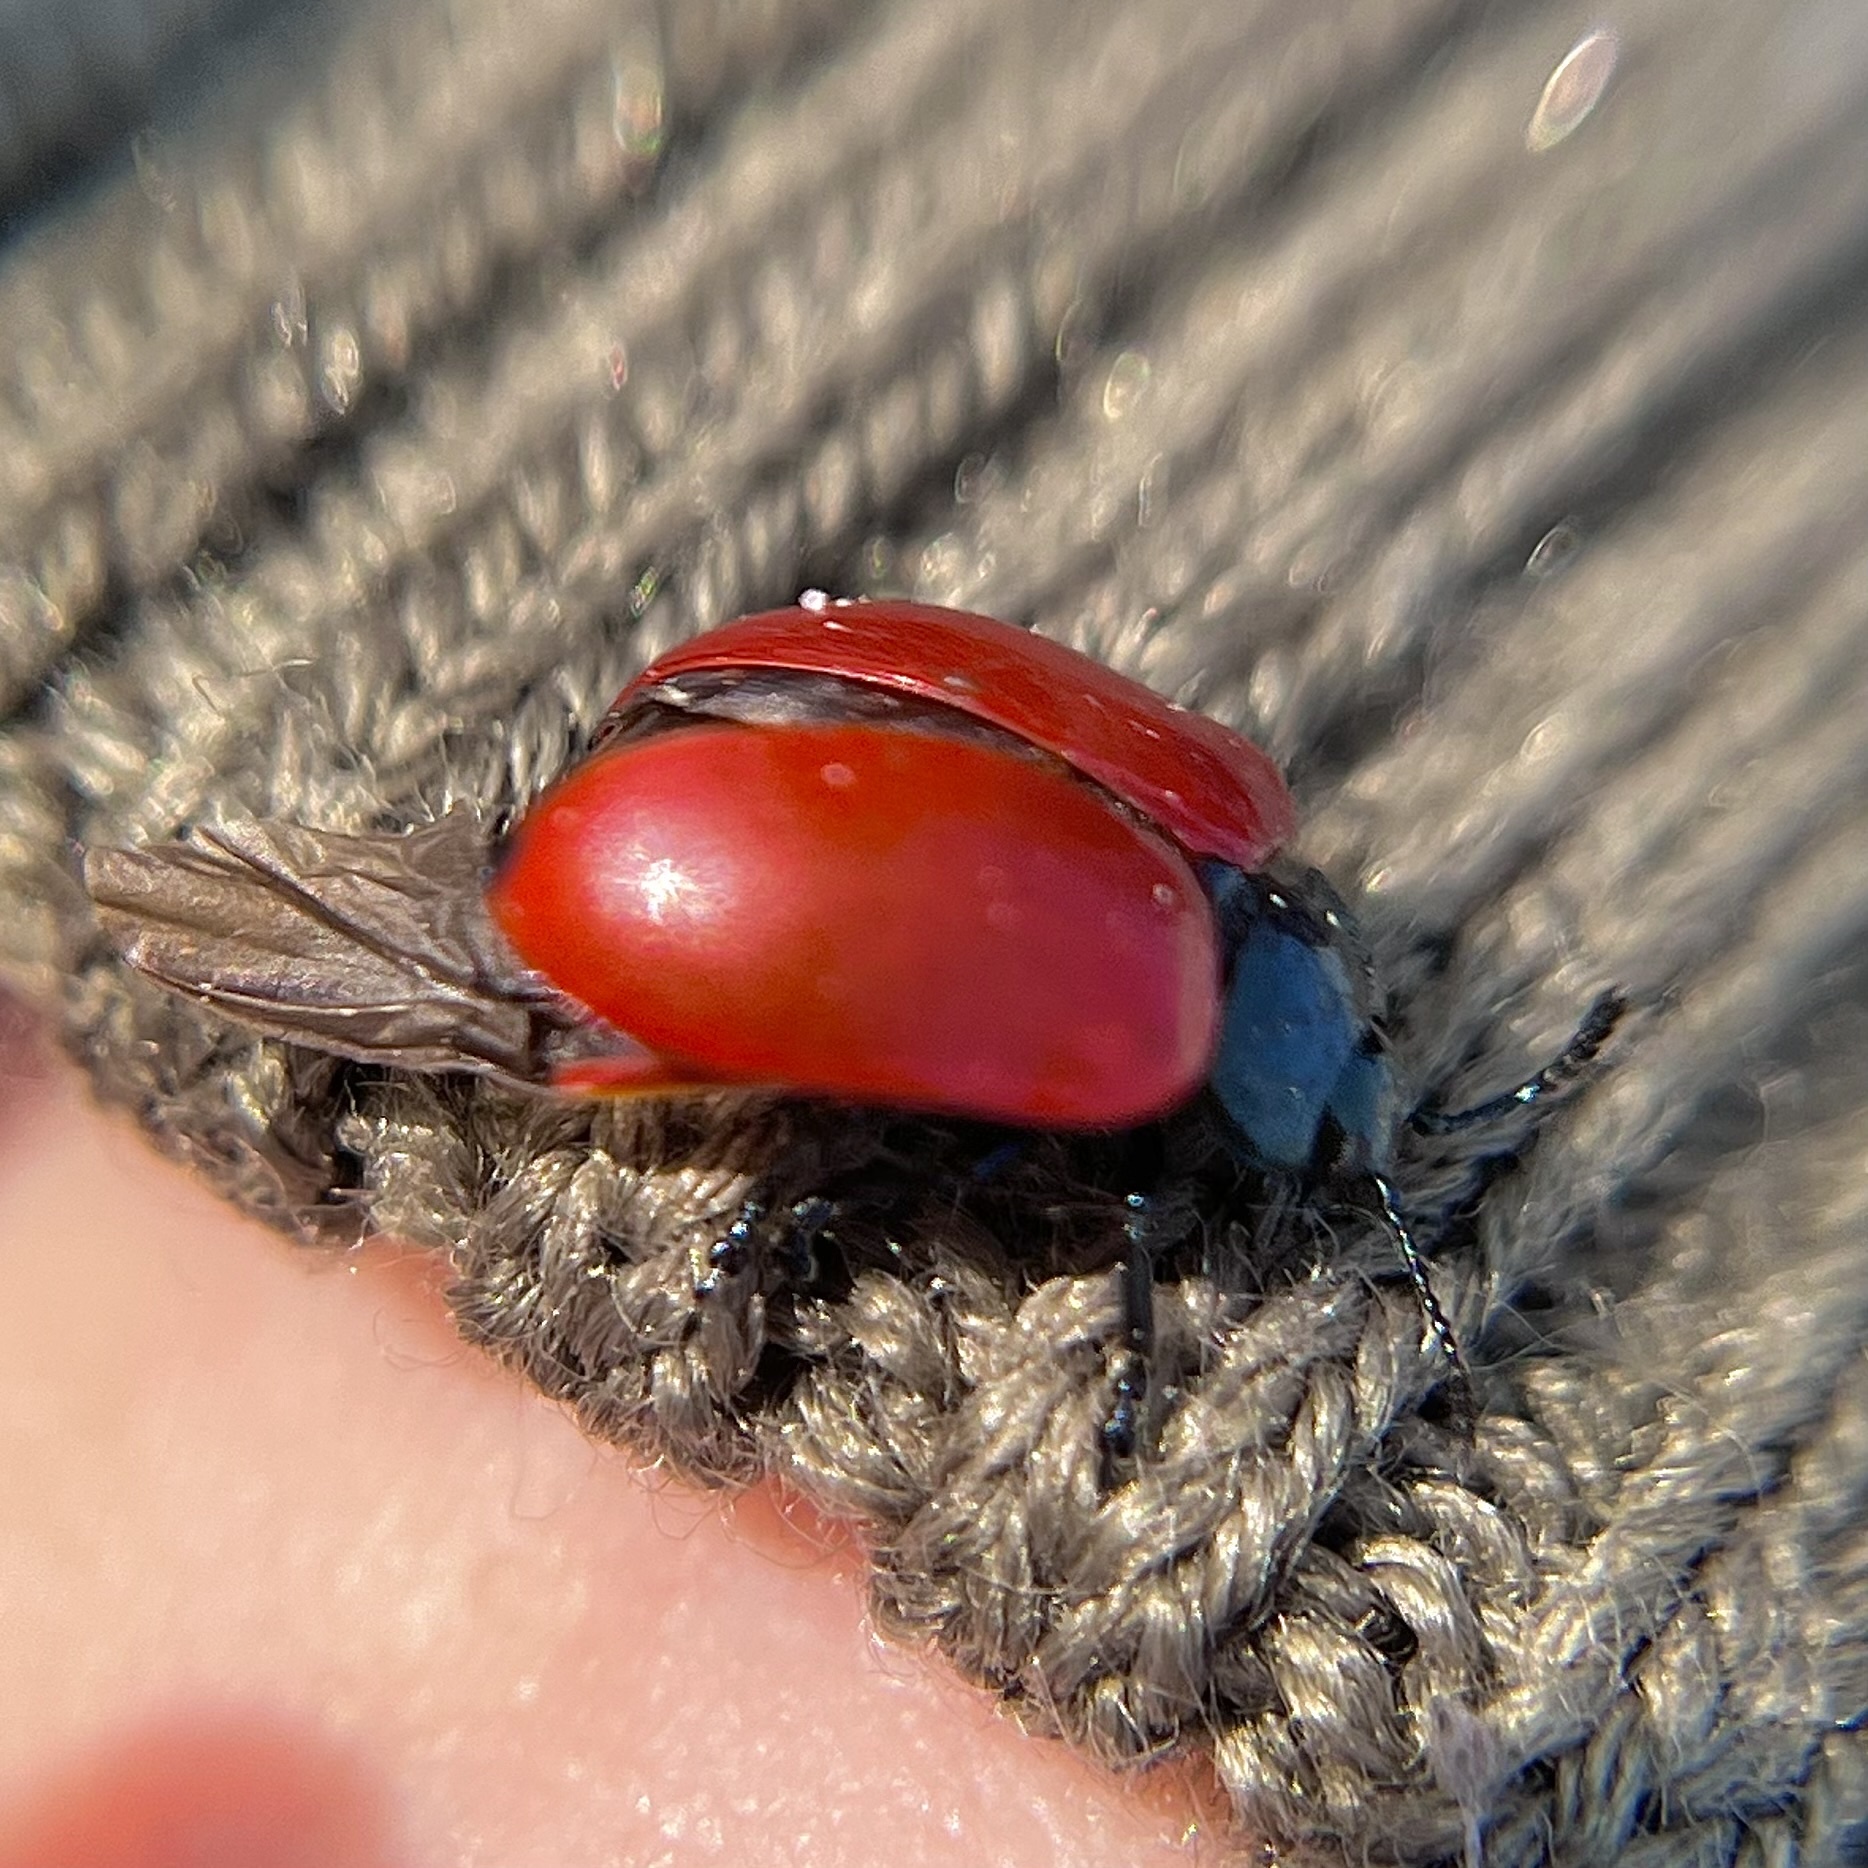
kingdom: Animalia
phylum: Arthropoda
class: Insecta
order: Coleoptera
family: Chrysomelidae
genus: Chrysomela
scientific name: Chrysomela populi
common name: Red poplar leaf beetle
